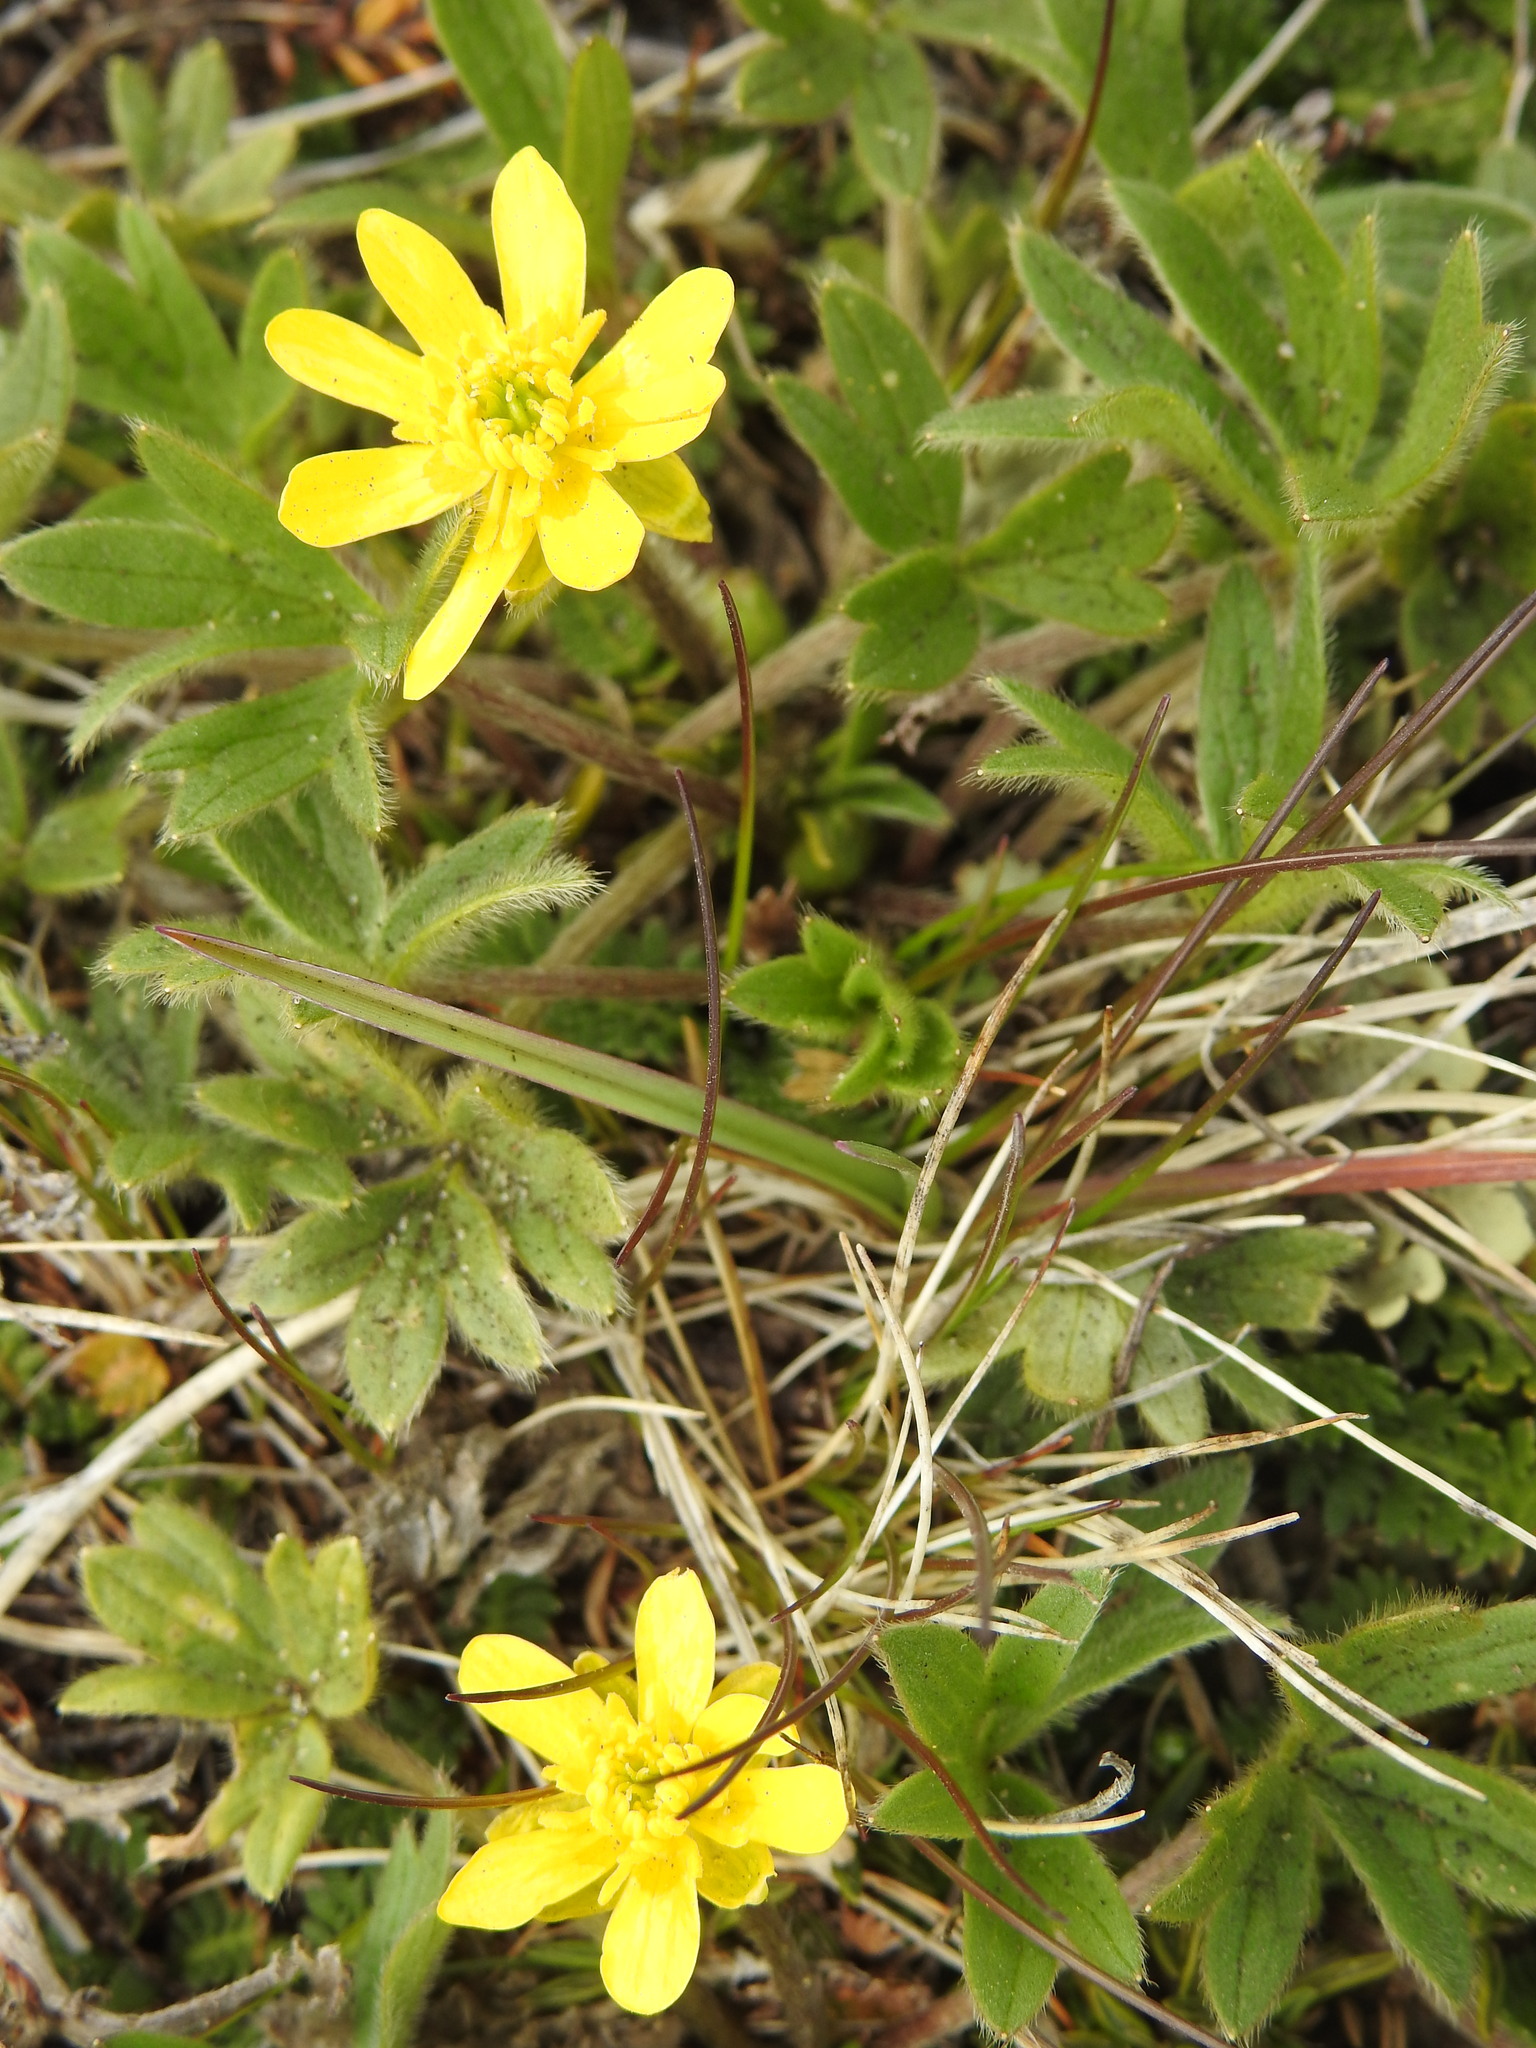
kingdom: Plantae
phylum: Tracheophyta
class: Magnoliopsida
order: Ranunculales
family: Ranunculaceae
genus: Ranunculus
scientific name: Ranunculus peduncularis
